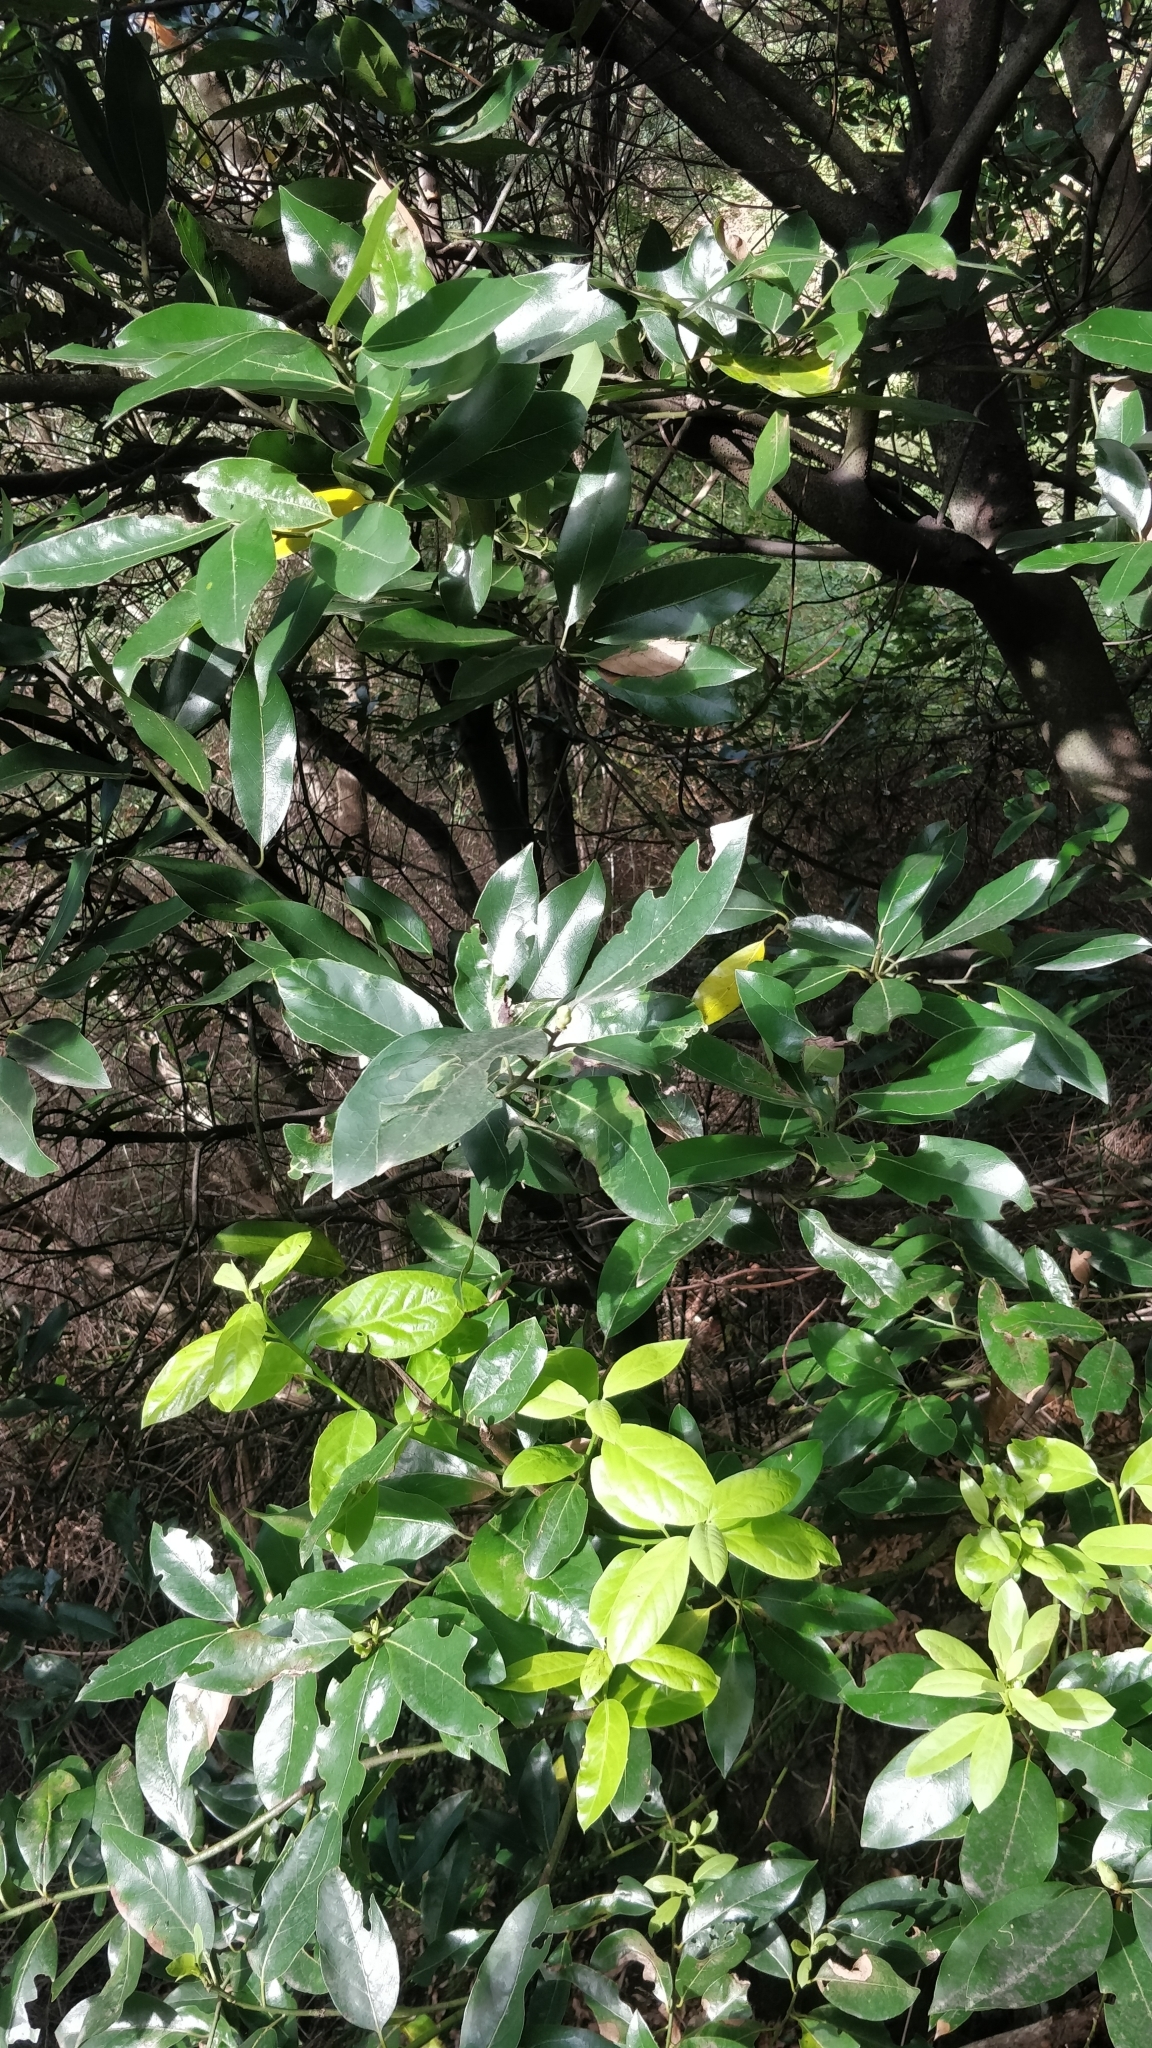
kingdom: Plantae
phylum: Tracheophyta
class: Magnoliopsida
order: Laurales
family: Lauraceae
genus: Laurus
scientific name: Laurus novocanariensis
